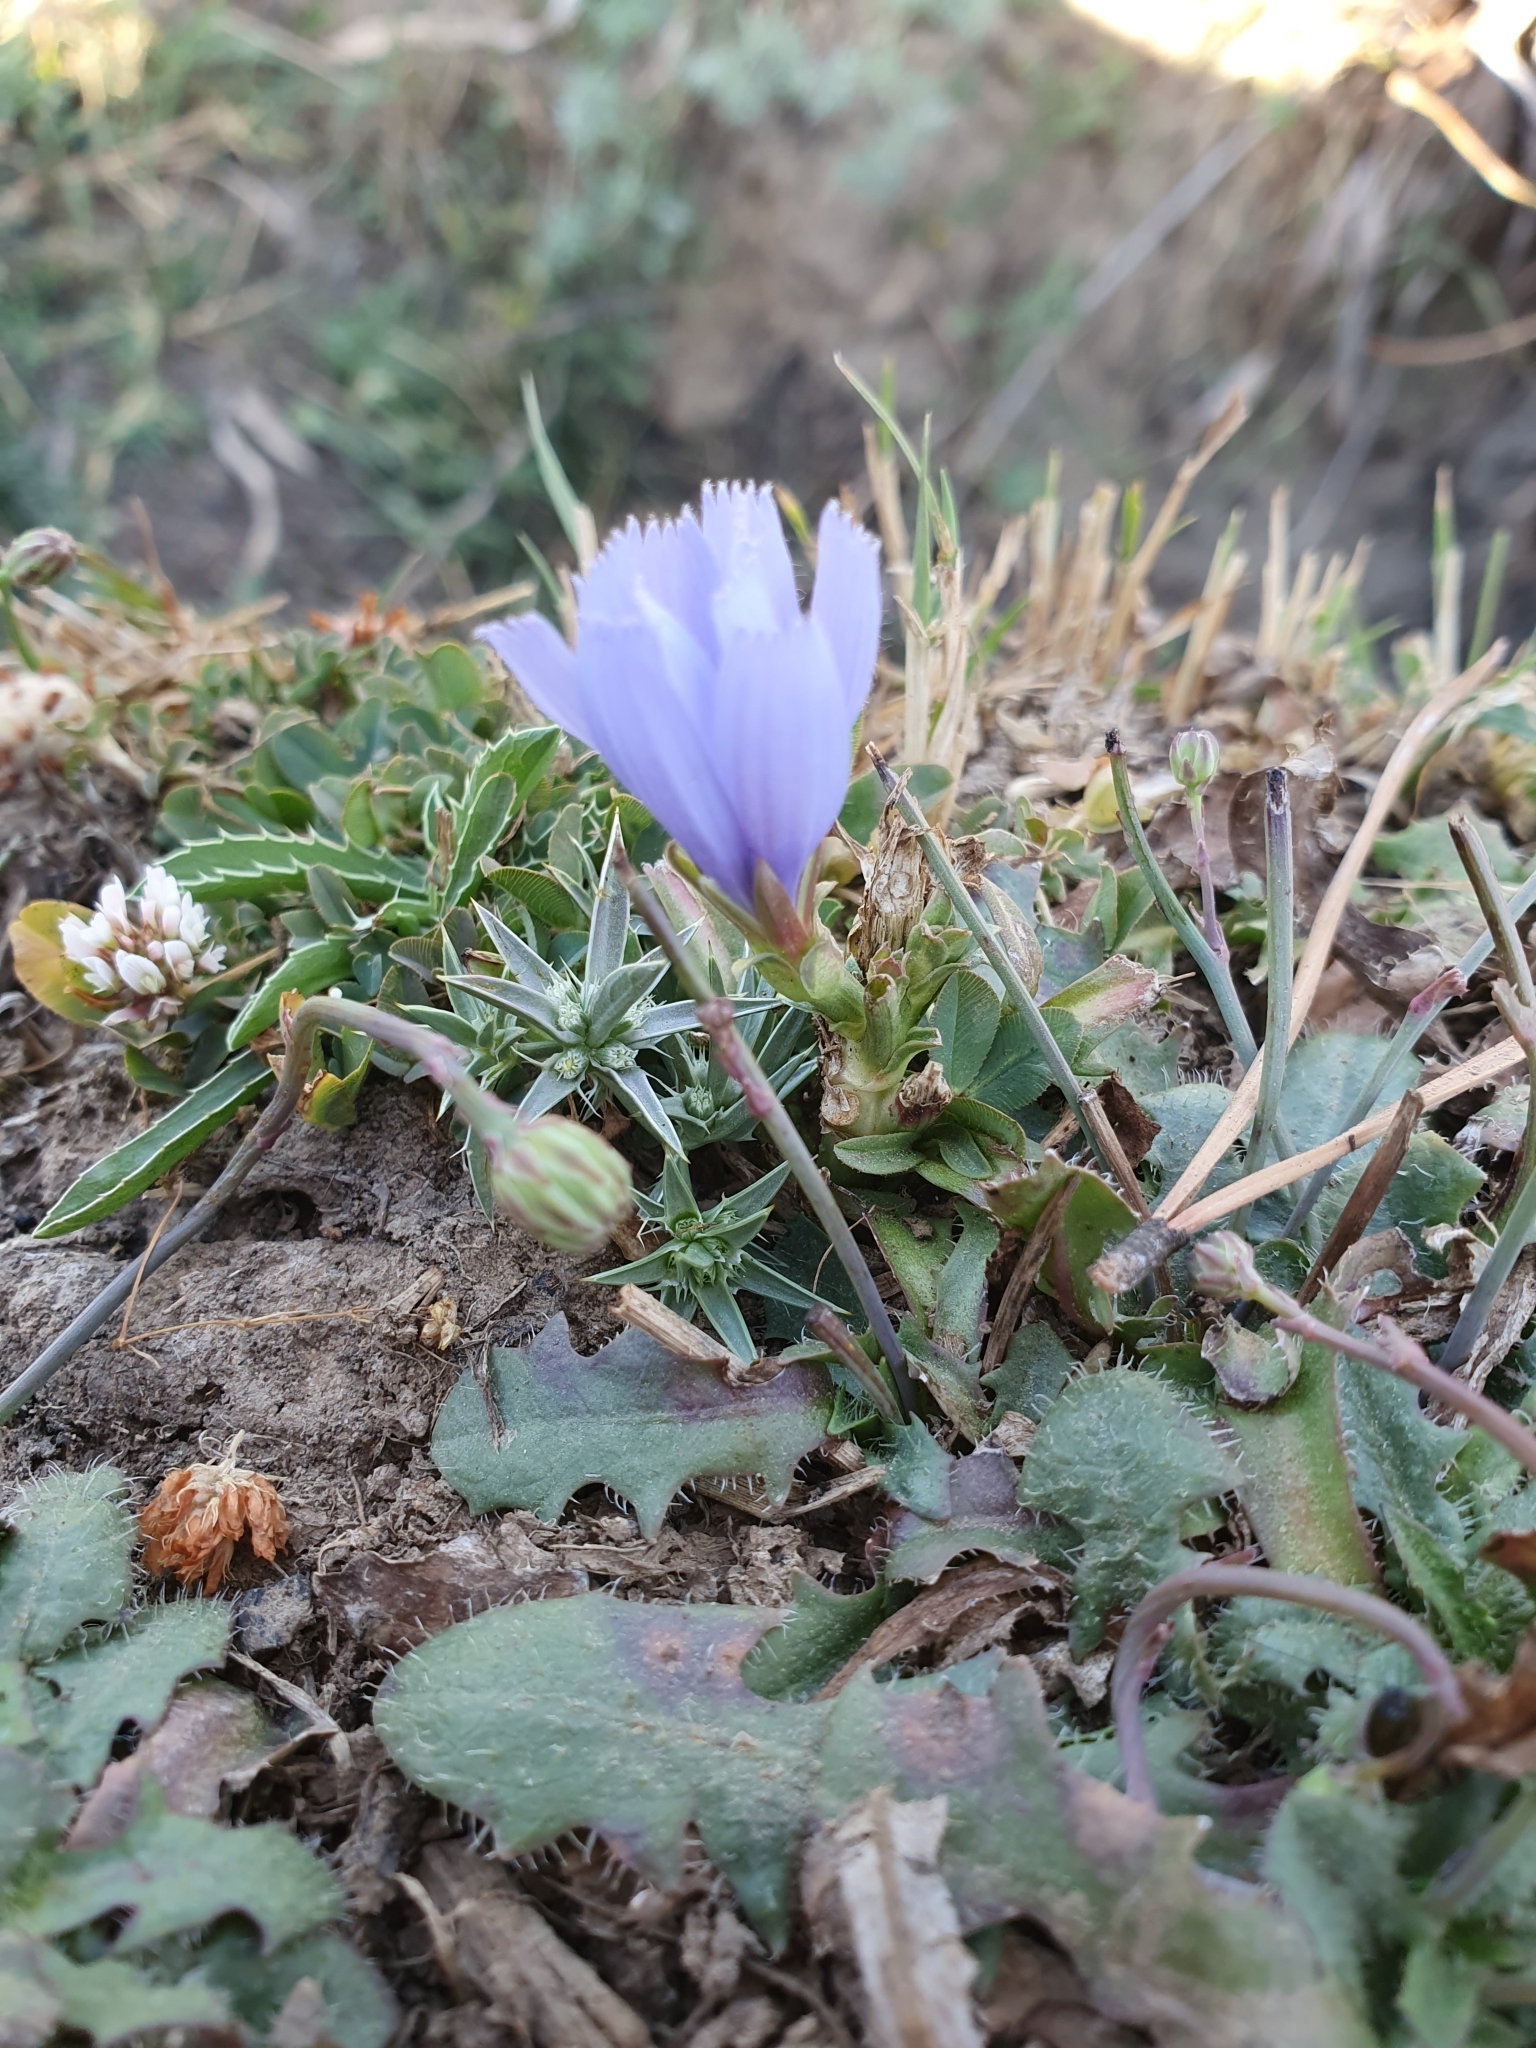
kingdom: Plantae
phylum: Tracheophyta
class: Magnoliopsida
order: Asterales
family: Asteraceae
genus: Cichorium
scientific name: Cichorium intybus
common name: Chicory
